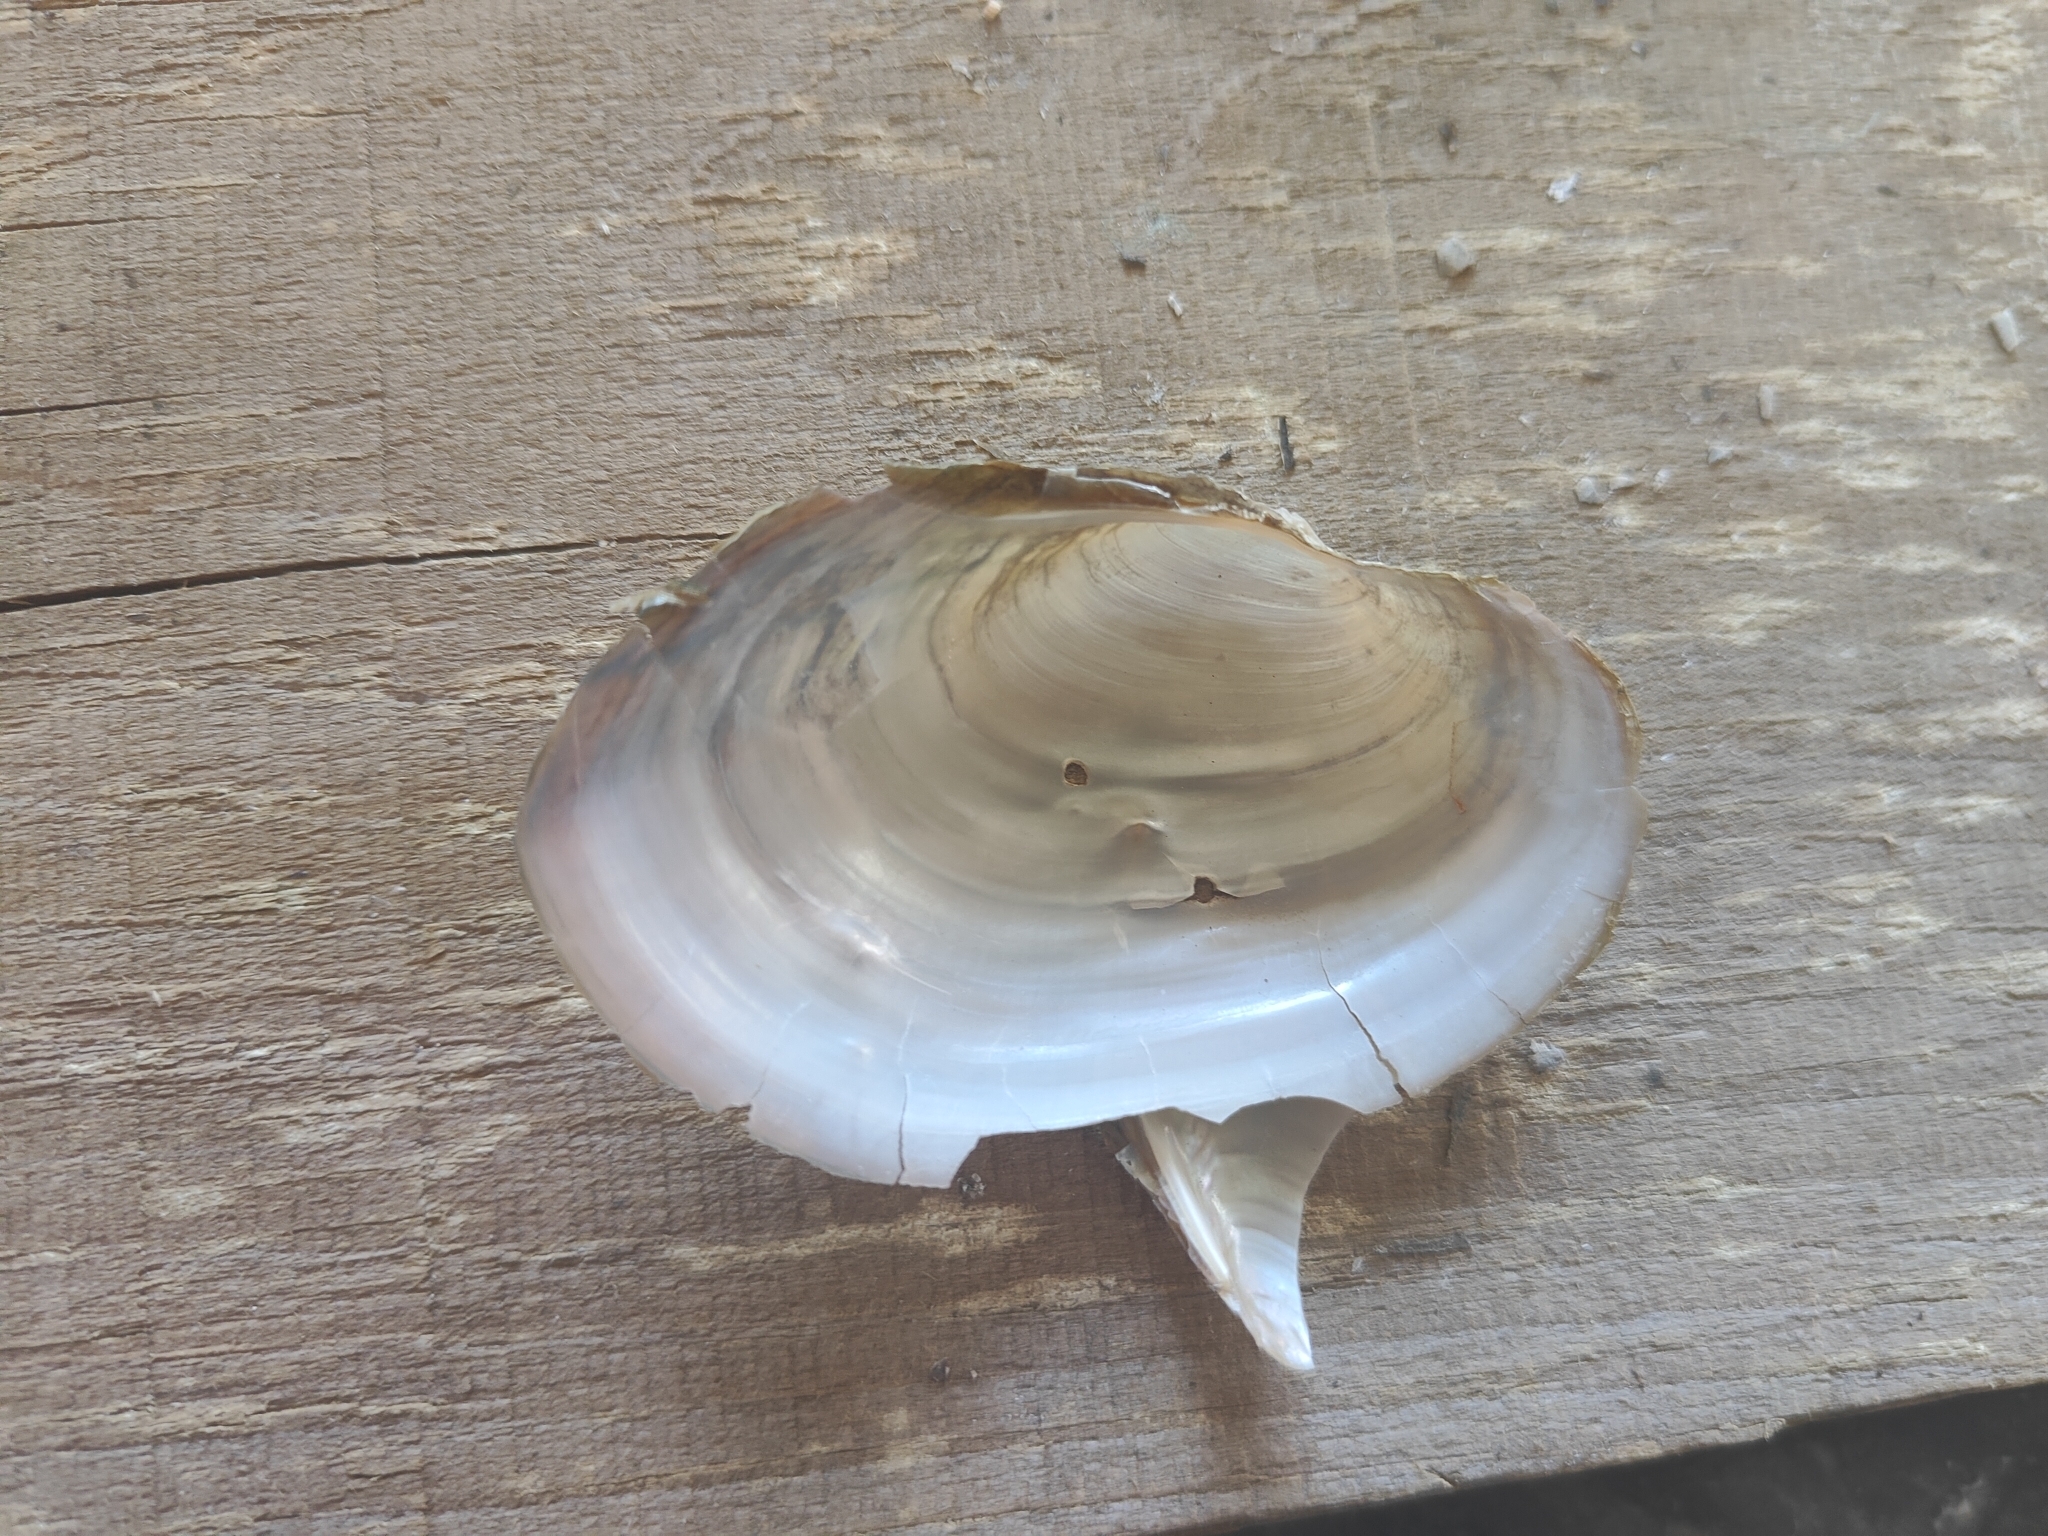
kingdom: Animalia
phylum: Mollusca
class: Bivalvia
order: Unionida
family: Unionidae
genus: Pyganodon
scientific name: Pyganodon grandis
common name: Giant floater
